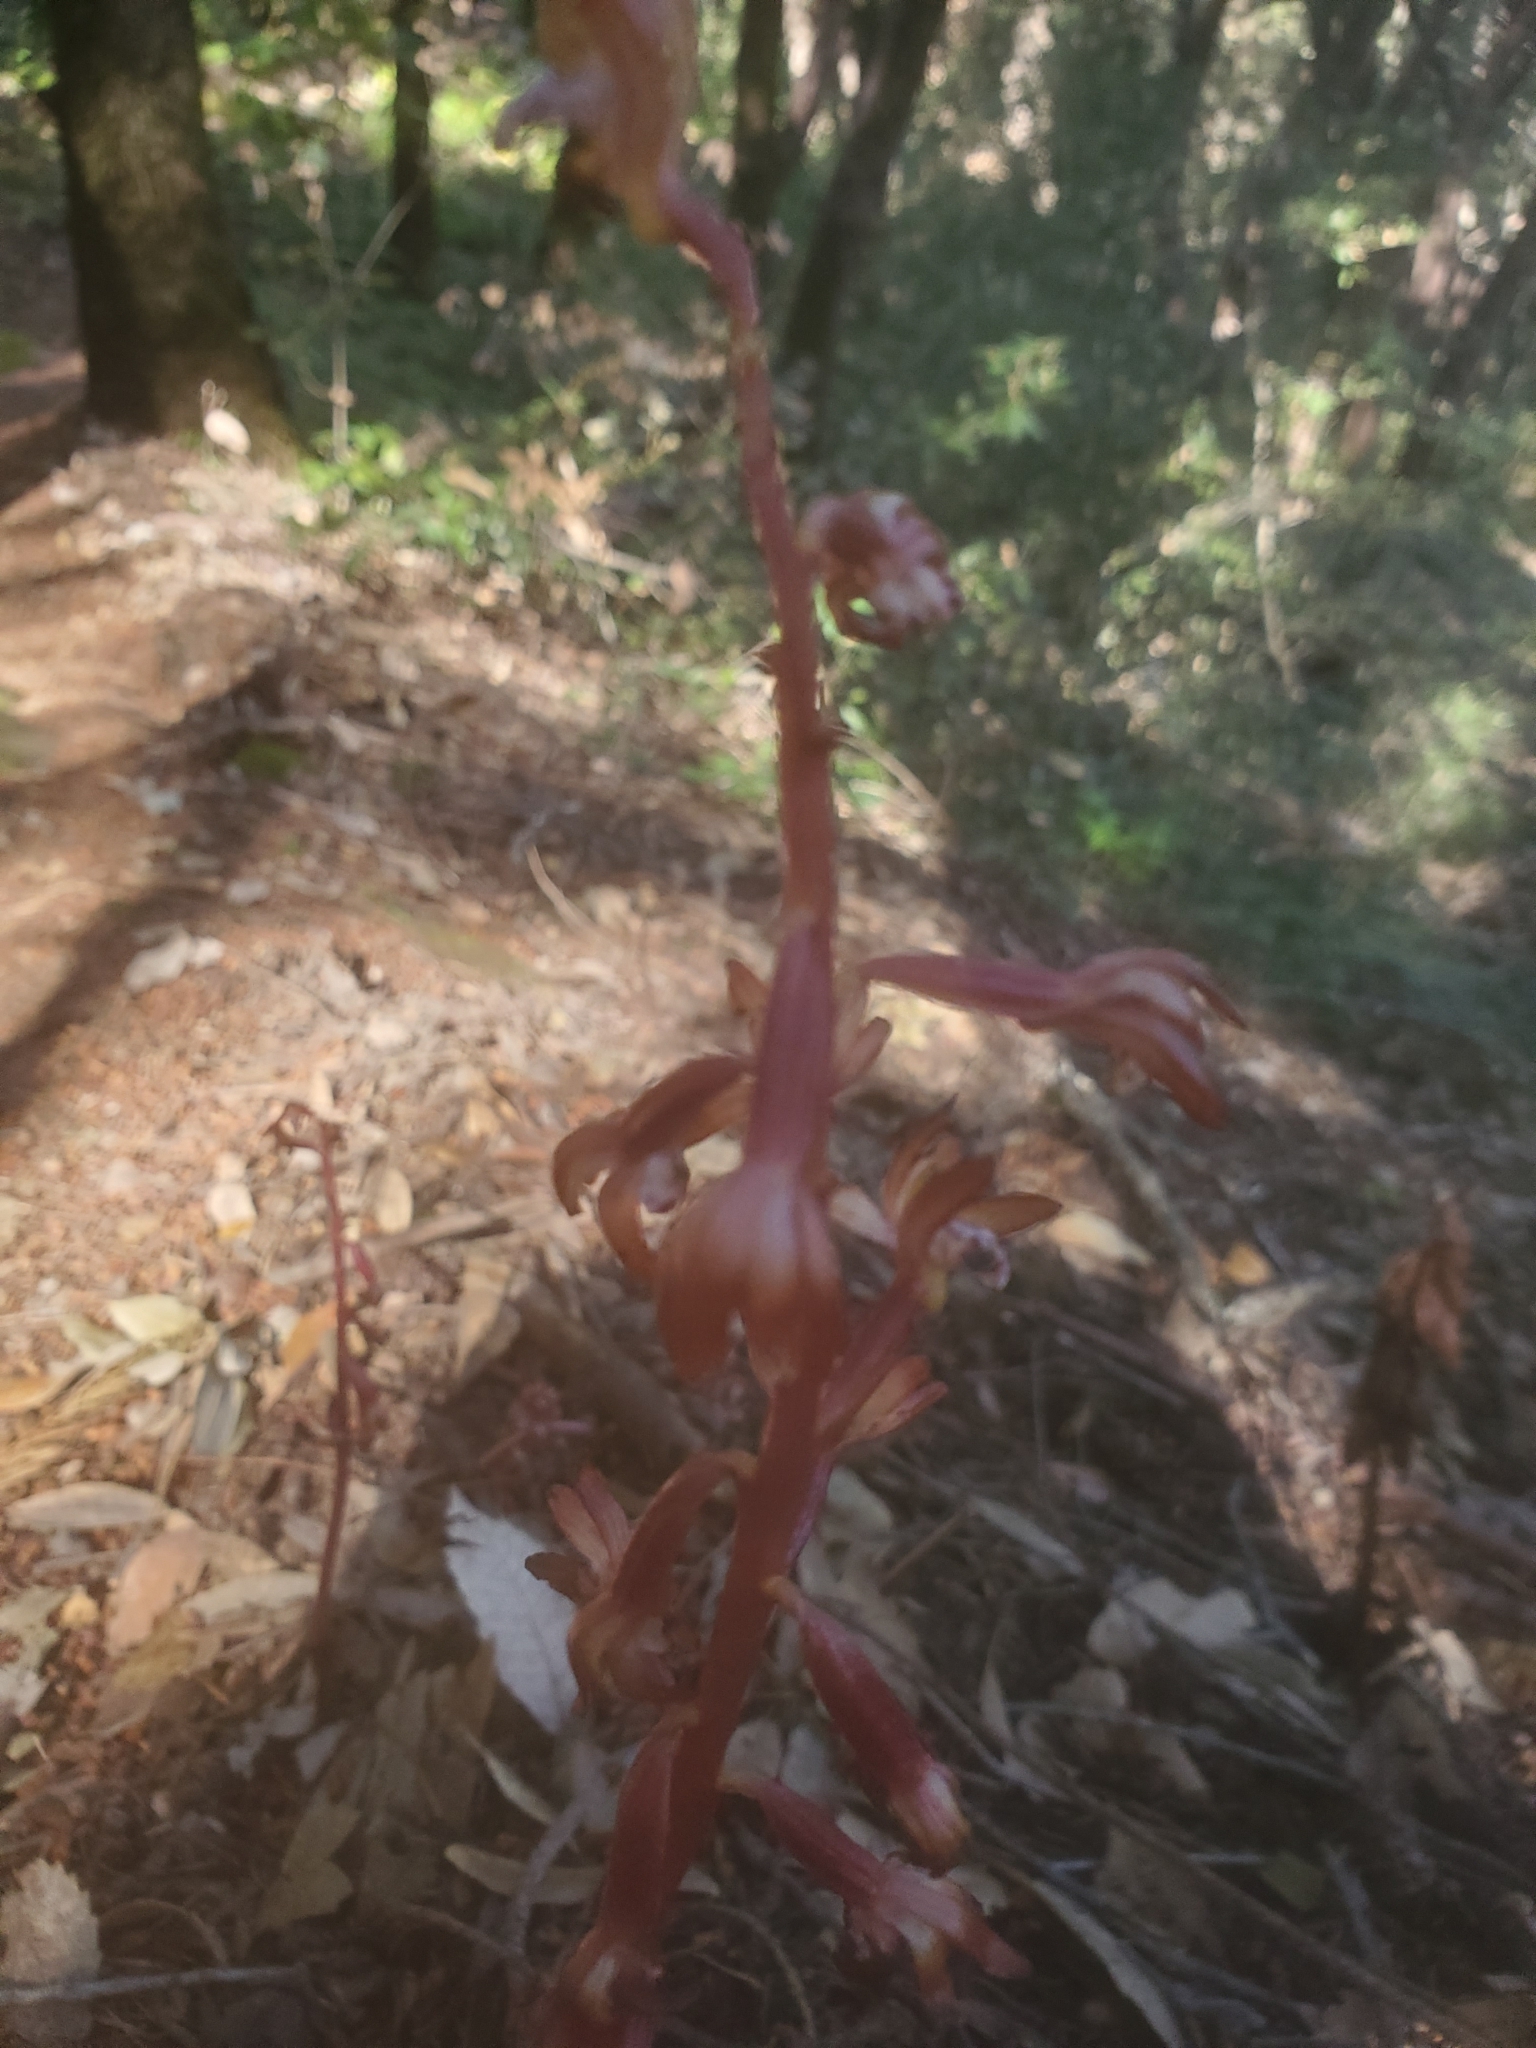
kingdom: Plantae
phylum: Tracheophyta
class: Liliopsida
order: Asparagales
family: Orchidaceae
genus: Corallorhiza
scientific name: Corallorhiza maculata
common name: Spotted coralroot
